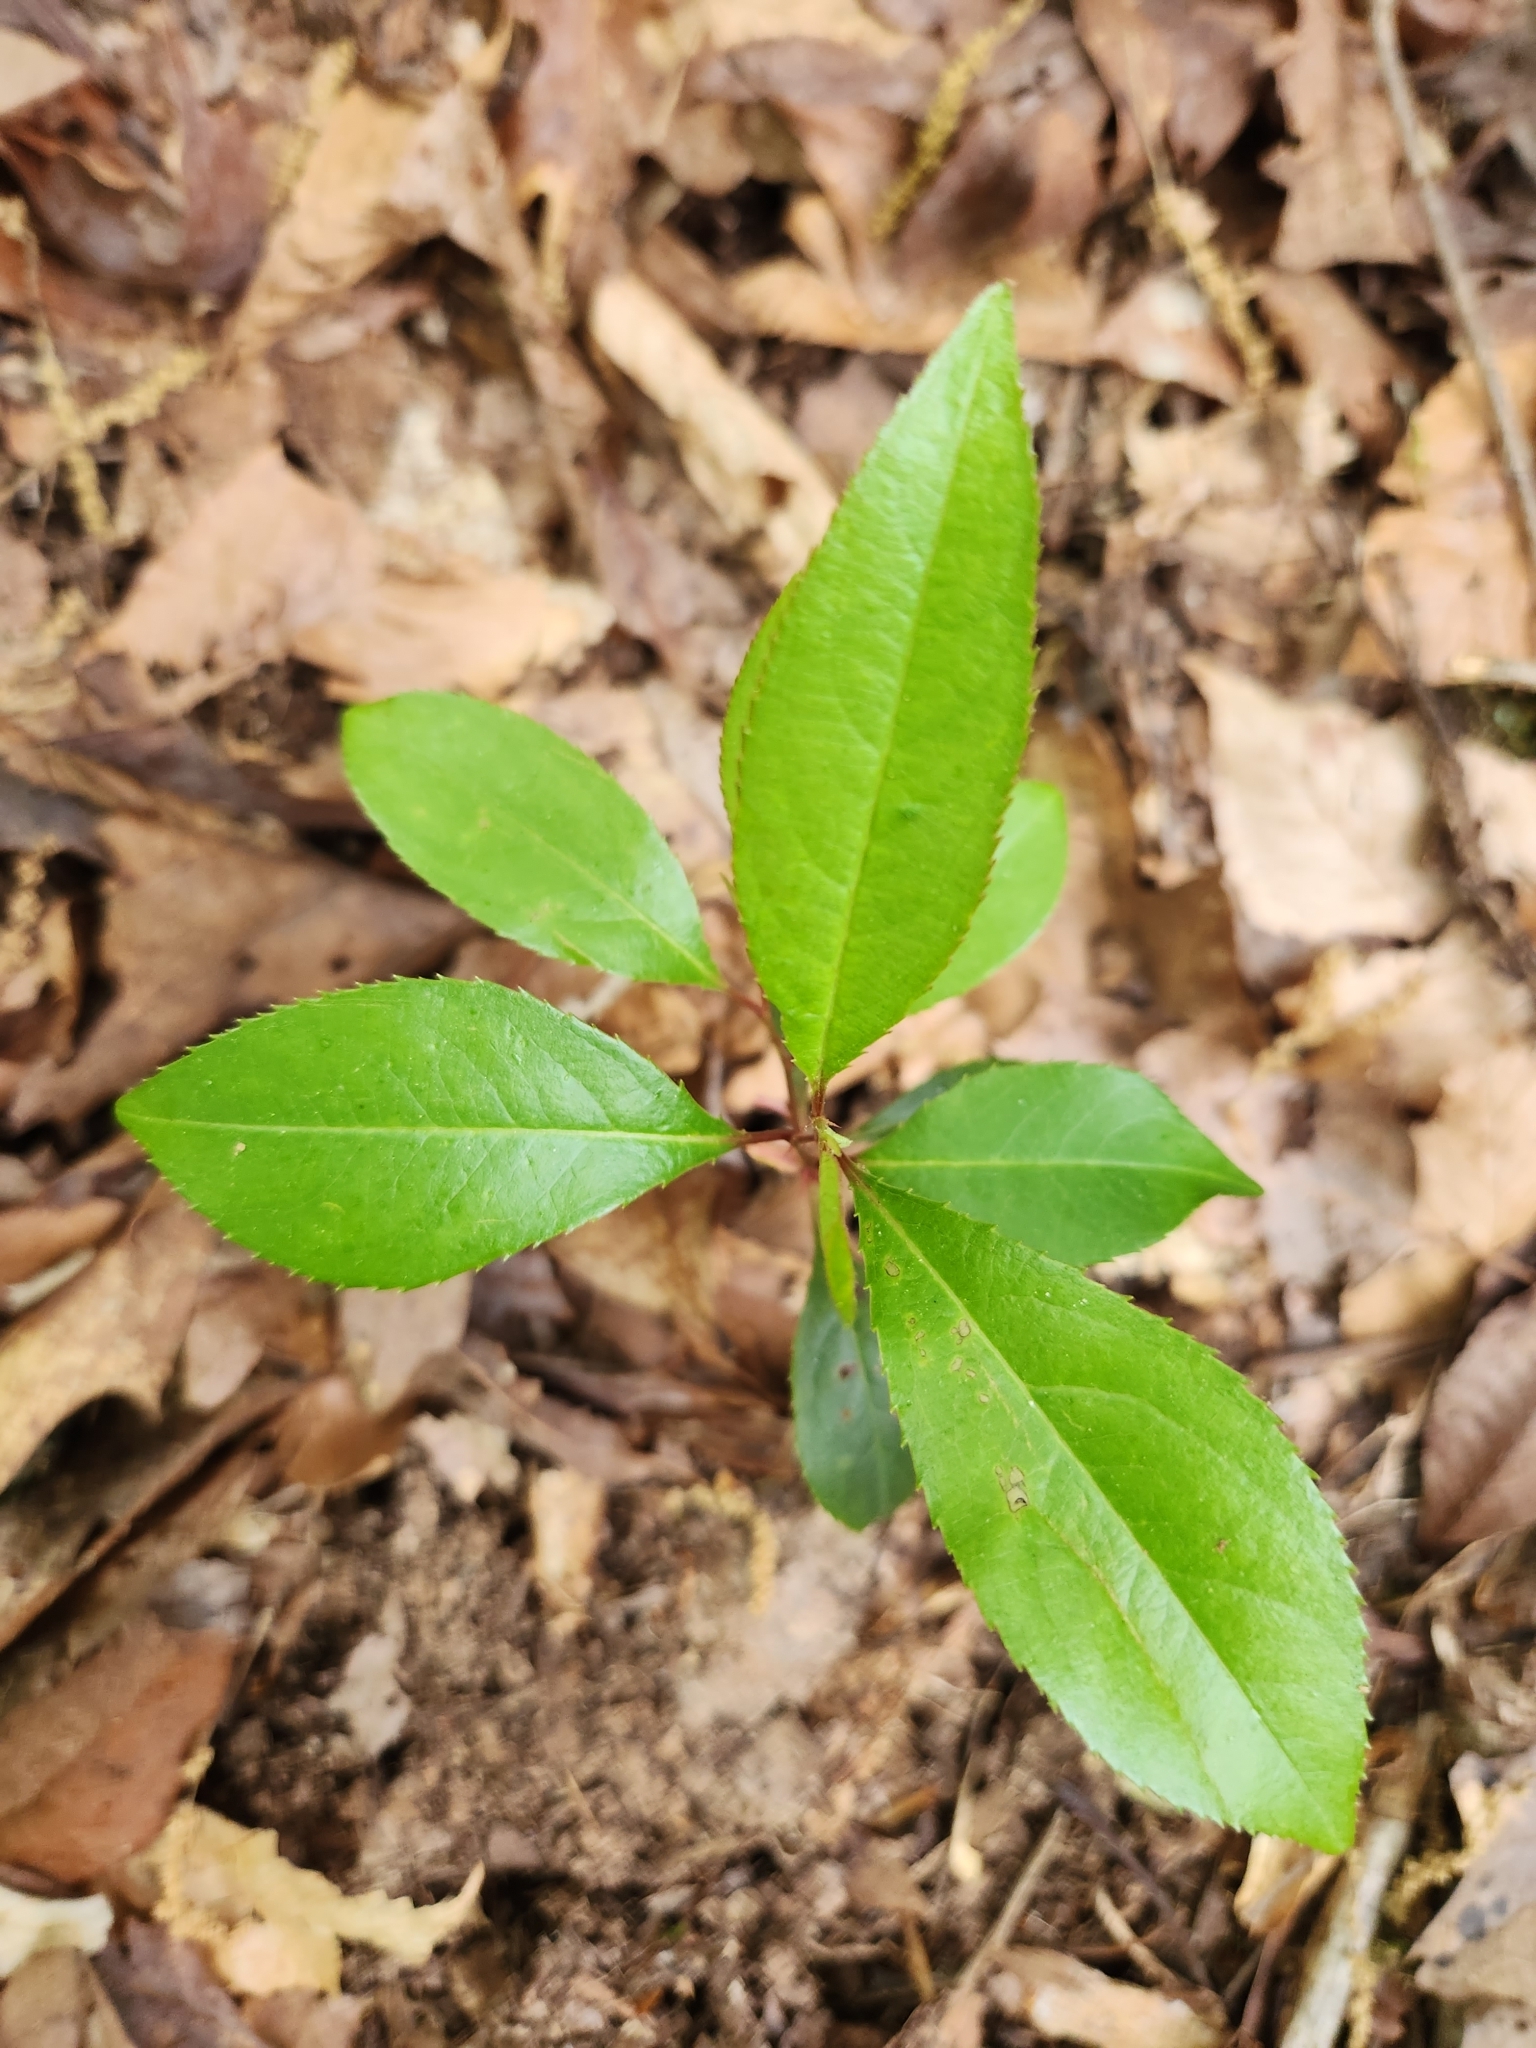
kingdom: Plantae
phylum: Tracheophyta
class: Magnoliopsida
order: Rosales
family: Rosaceae
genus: Prunus
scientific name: Prunus serotina
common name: Black cherry
